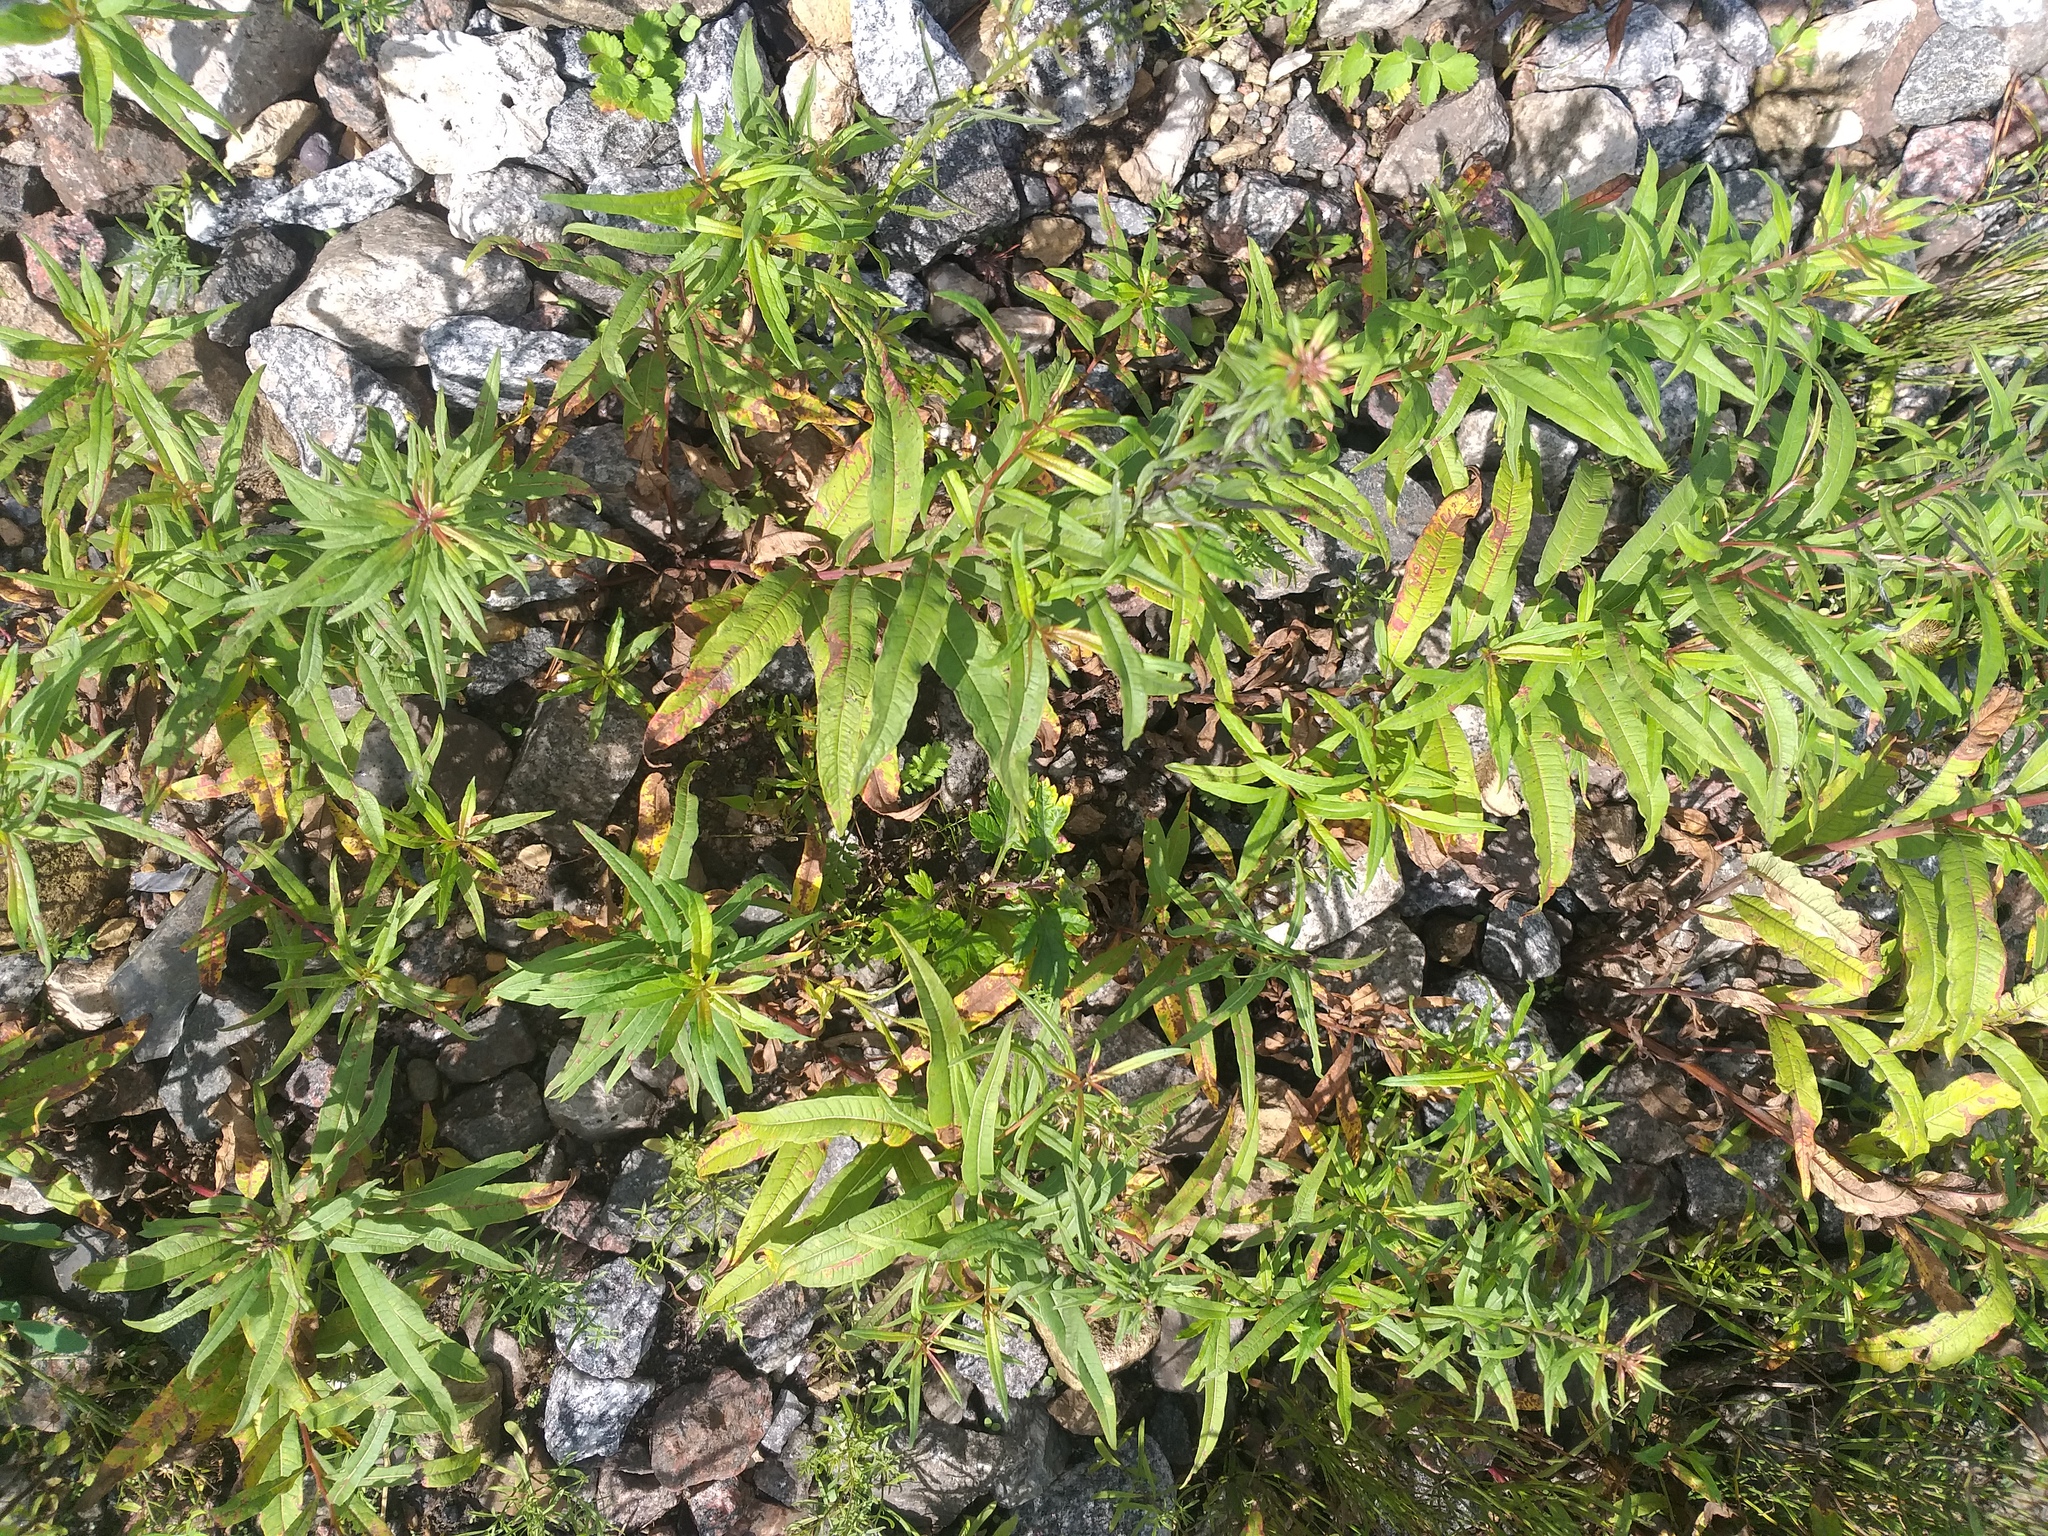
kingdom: Plantae
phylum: Tracheophyta
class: Magnoliopsida
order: Myrtales
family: Onagraceae
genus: Chamaenerion
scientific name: Chamaenerion angustifolium
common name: Fireweed
